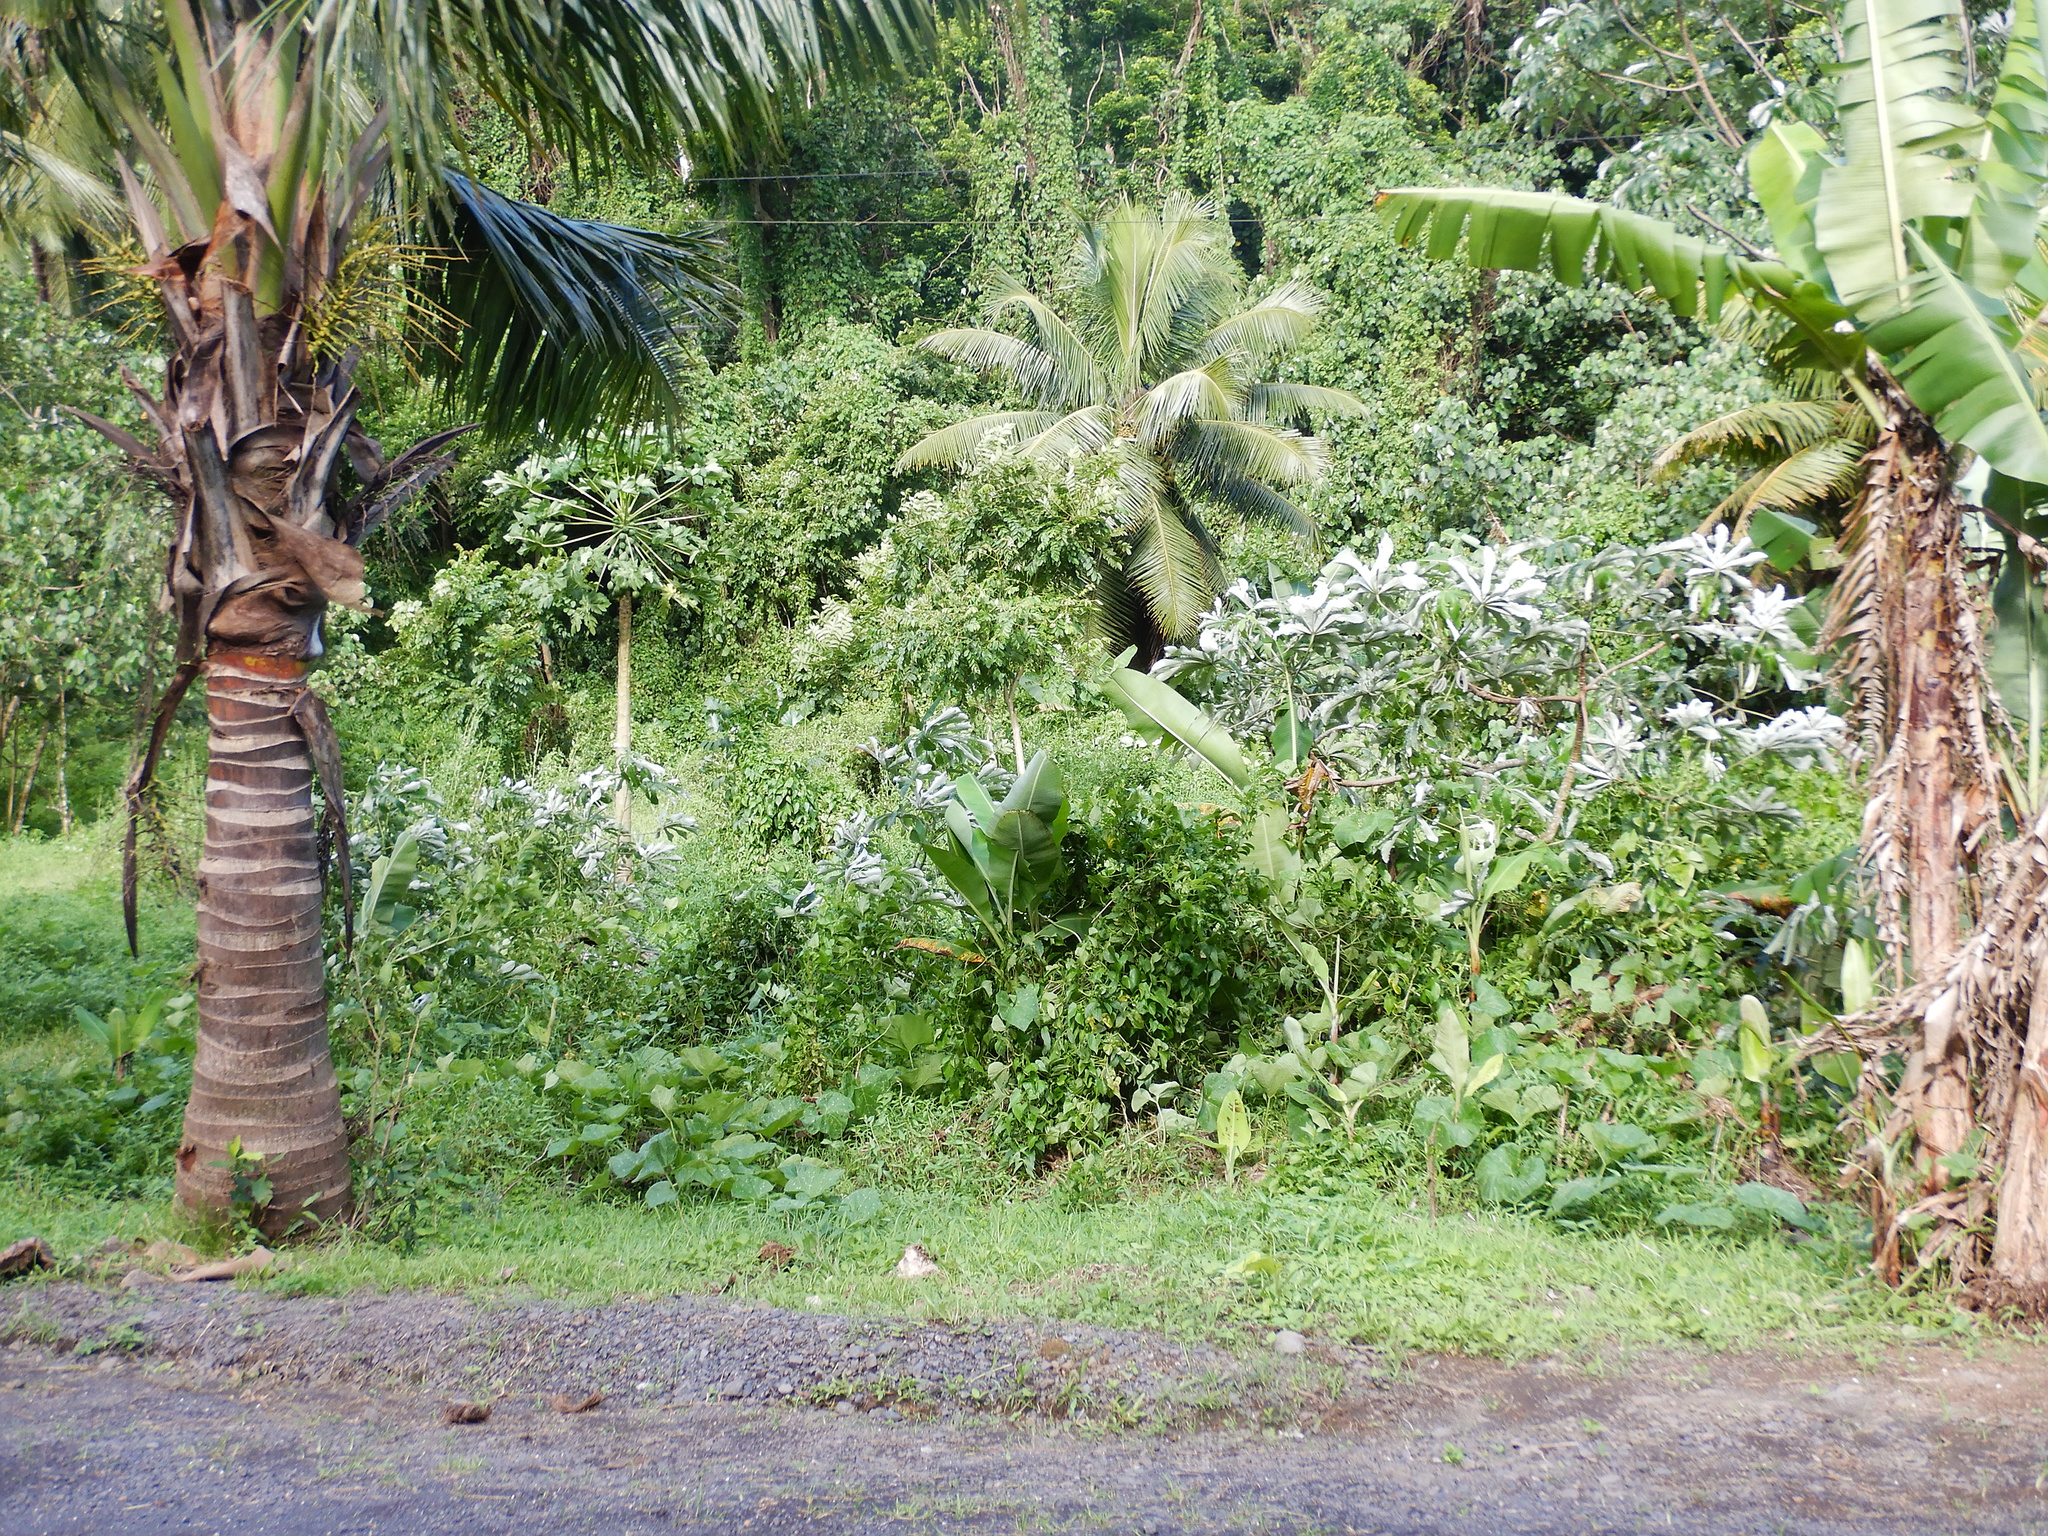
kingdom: Plantae
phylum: Tracheophyta
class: Magnoliopsida
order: Rosales
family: Urticaceae
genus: Cecropia
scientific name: Cecropia pachystachya
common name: Ambay pumpwood
